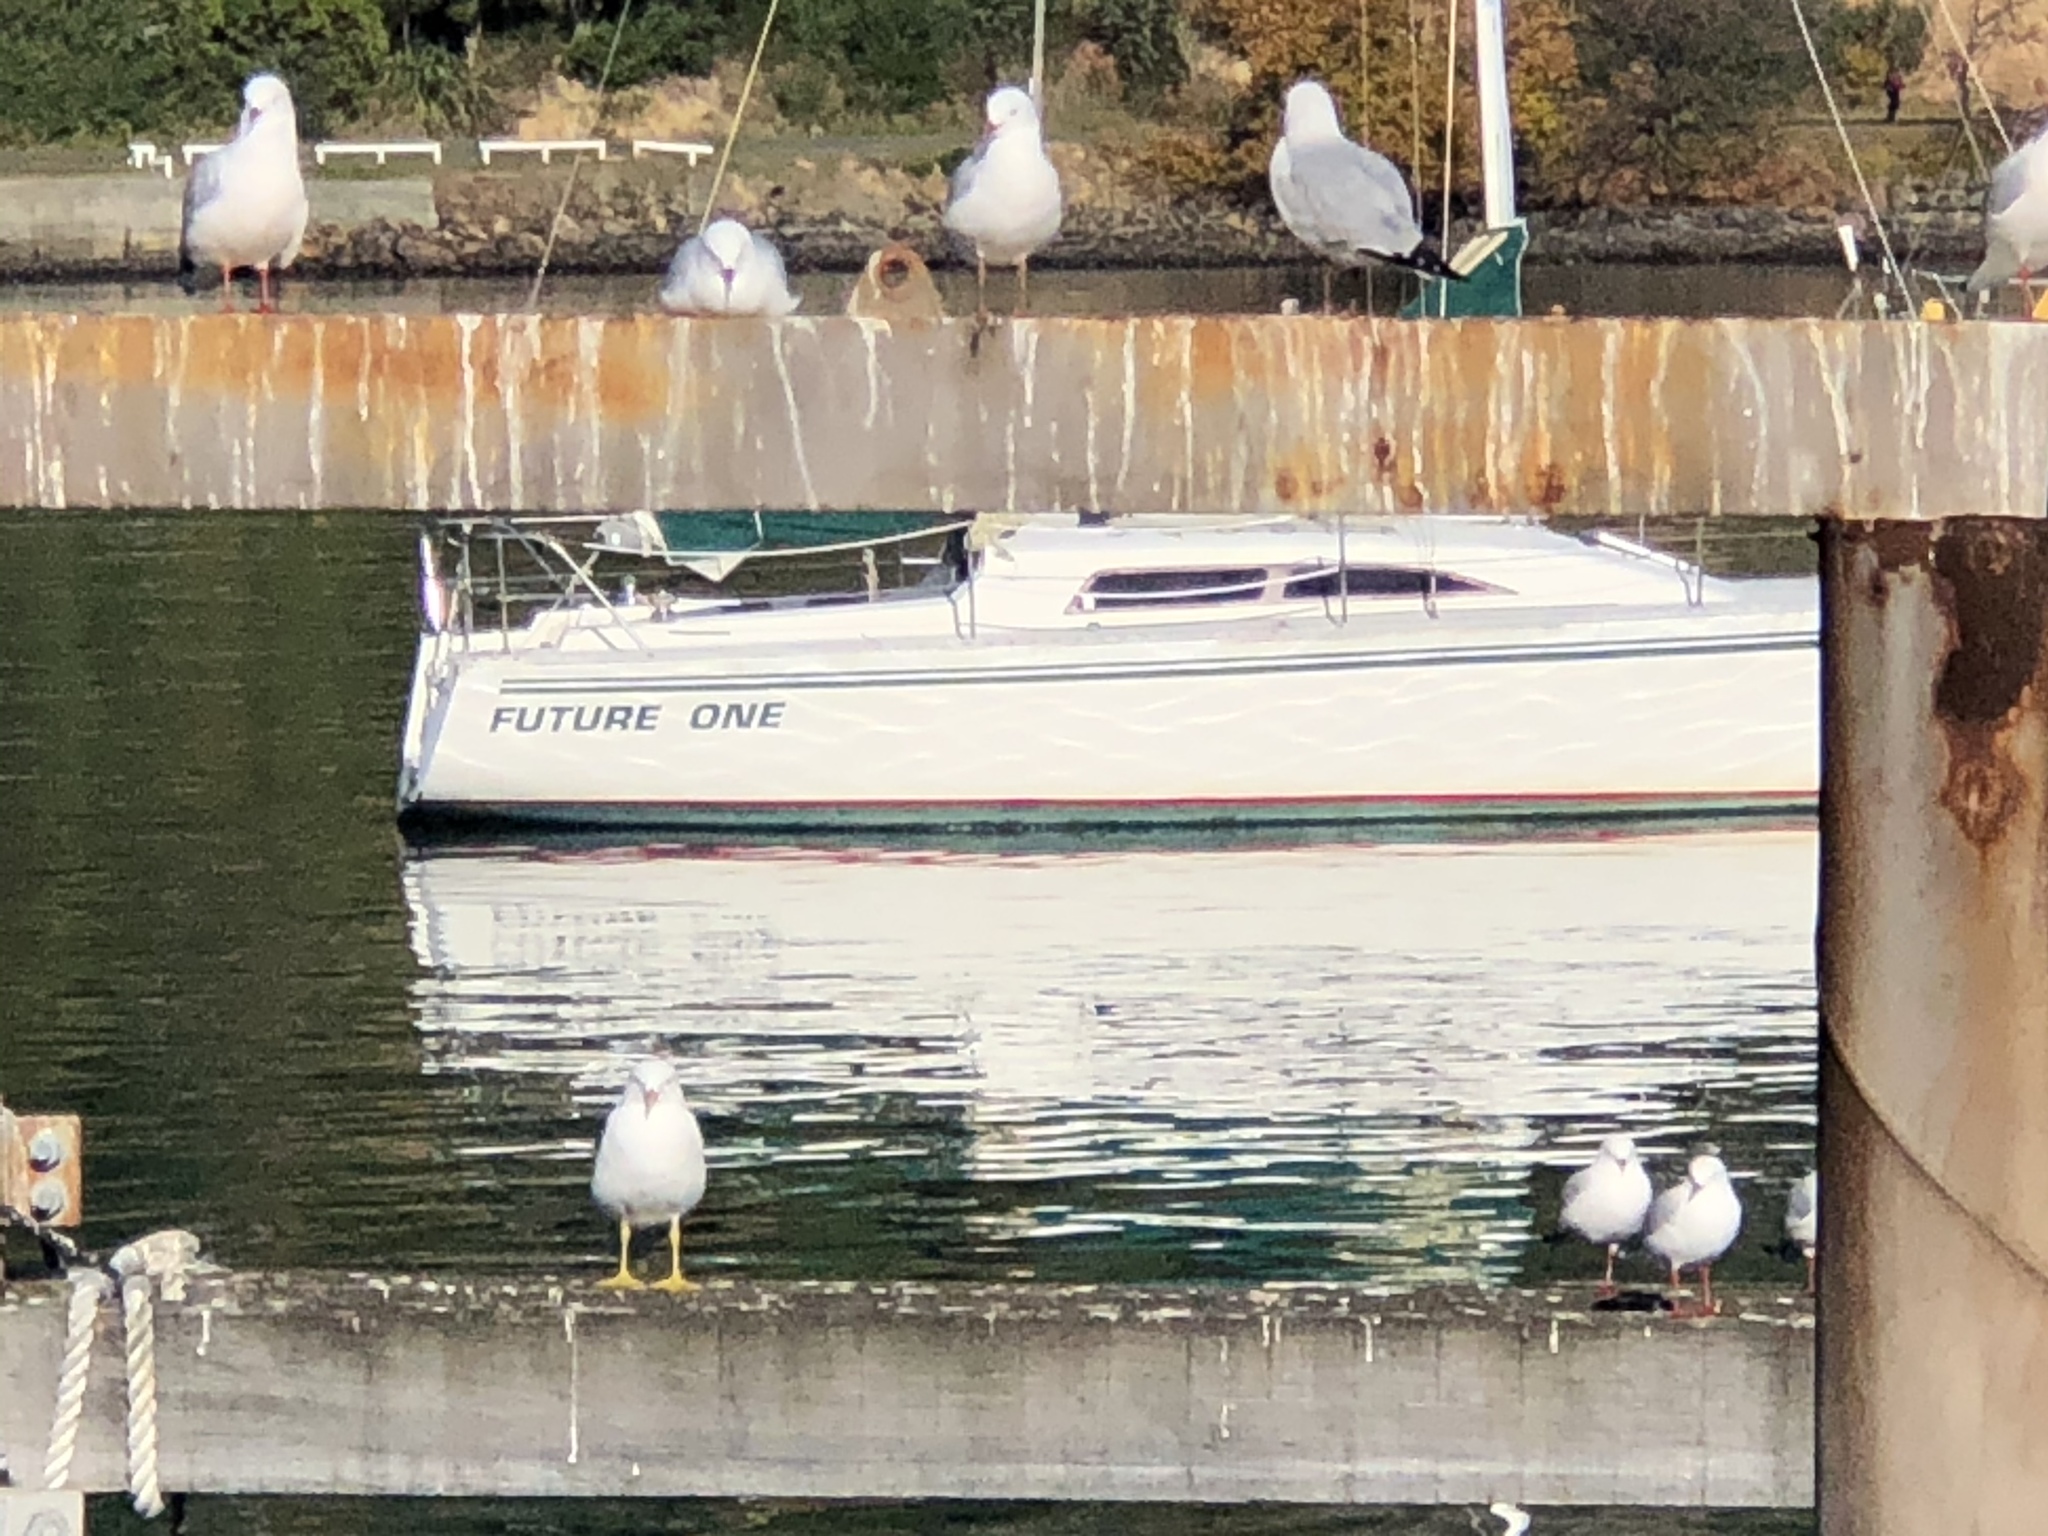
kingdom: Animalia
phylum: Chordata
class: Aves
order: Charadriiformes
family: Laridae
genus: Chroicocephalus
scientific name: Chroicocephalus novaehollandiae
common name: Silver gull
